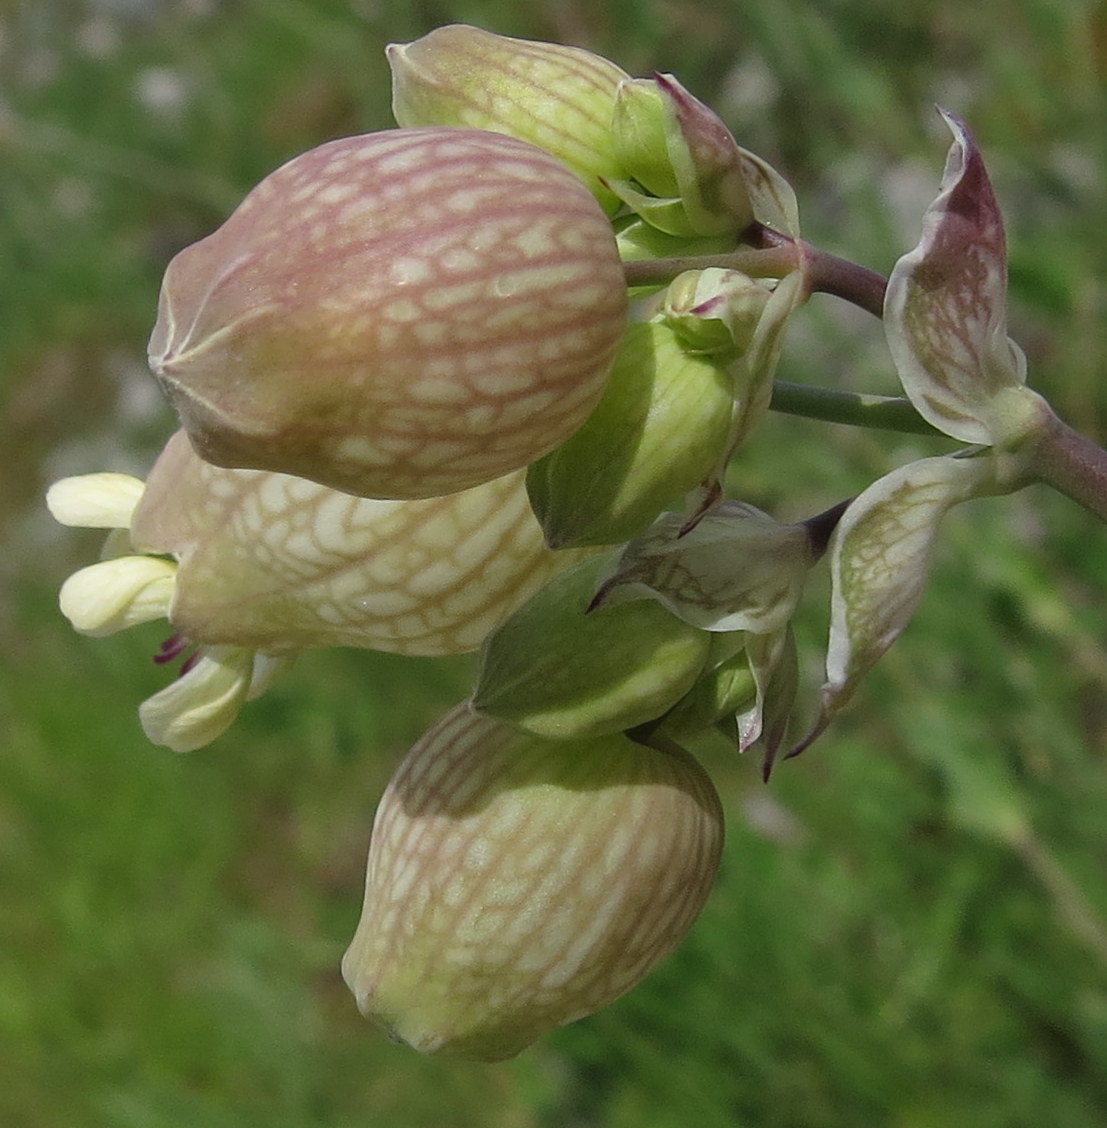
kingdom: Plantae
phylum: Tracheophyta
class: Magnoliopsida
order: Caryophyllales
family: Caryophyllaceae
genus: Silene
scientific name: Silene vulgaris
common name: Bladder campion
